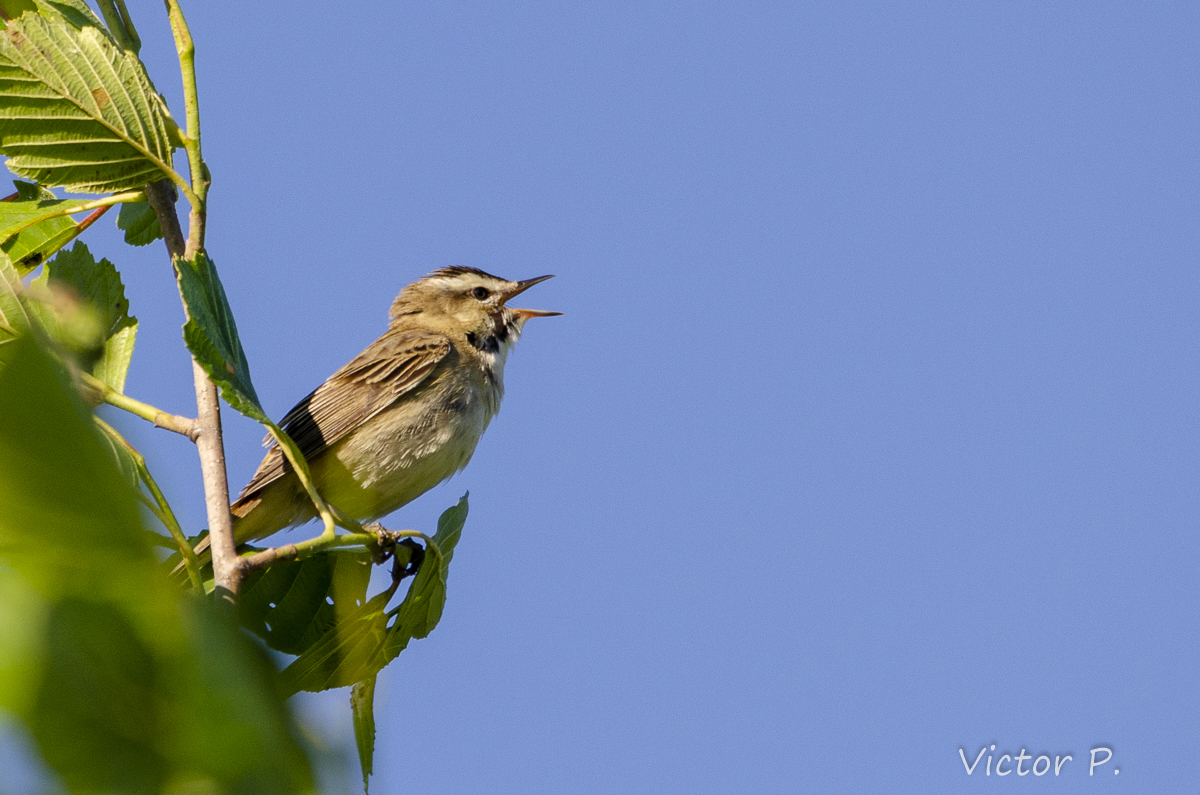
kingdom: Animalia
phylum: Chordata
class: Aves
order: Passeriformes
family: Acrocephalidae
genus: Acrocephalus
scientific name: Acrocephalus schoenobaenus
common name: Sedge warbler
